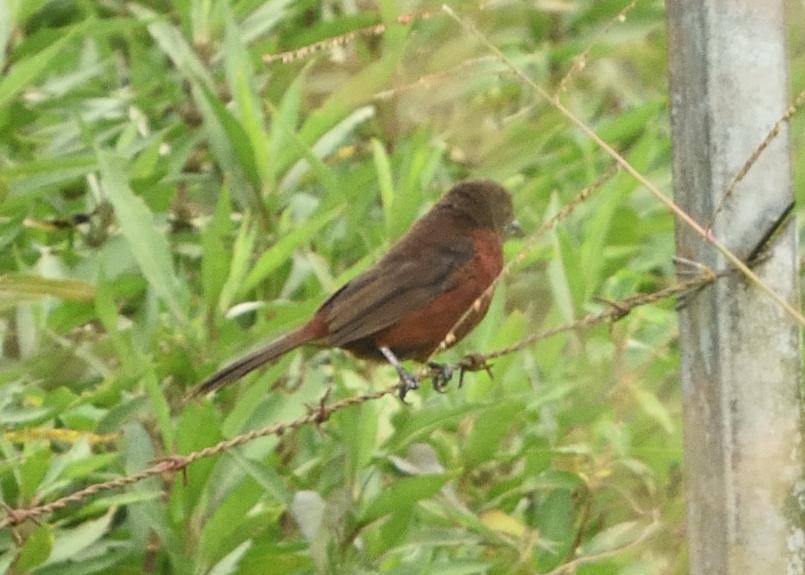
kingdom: Animalia
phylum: Chordata
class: Aves
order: Passeriformes
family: Thraupidae
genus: Ramphocelus
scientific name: Ramphocelus carbo
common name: Silver-beaked tanager
